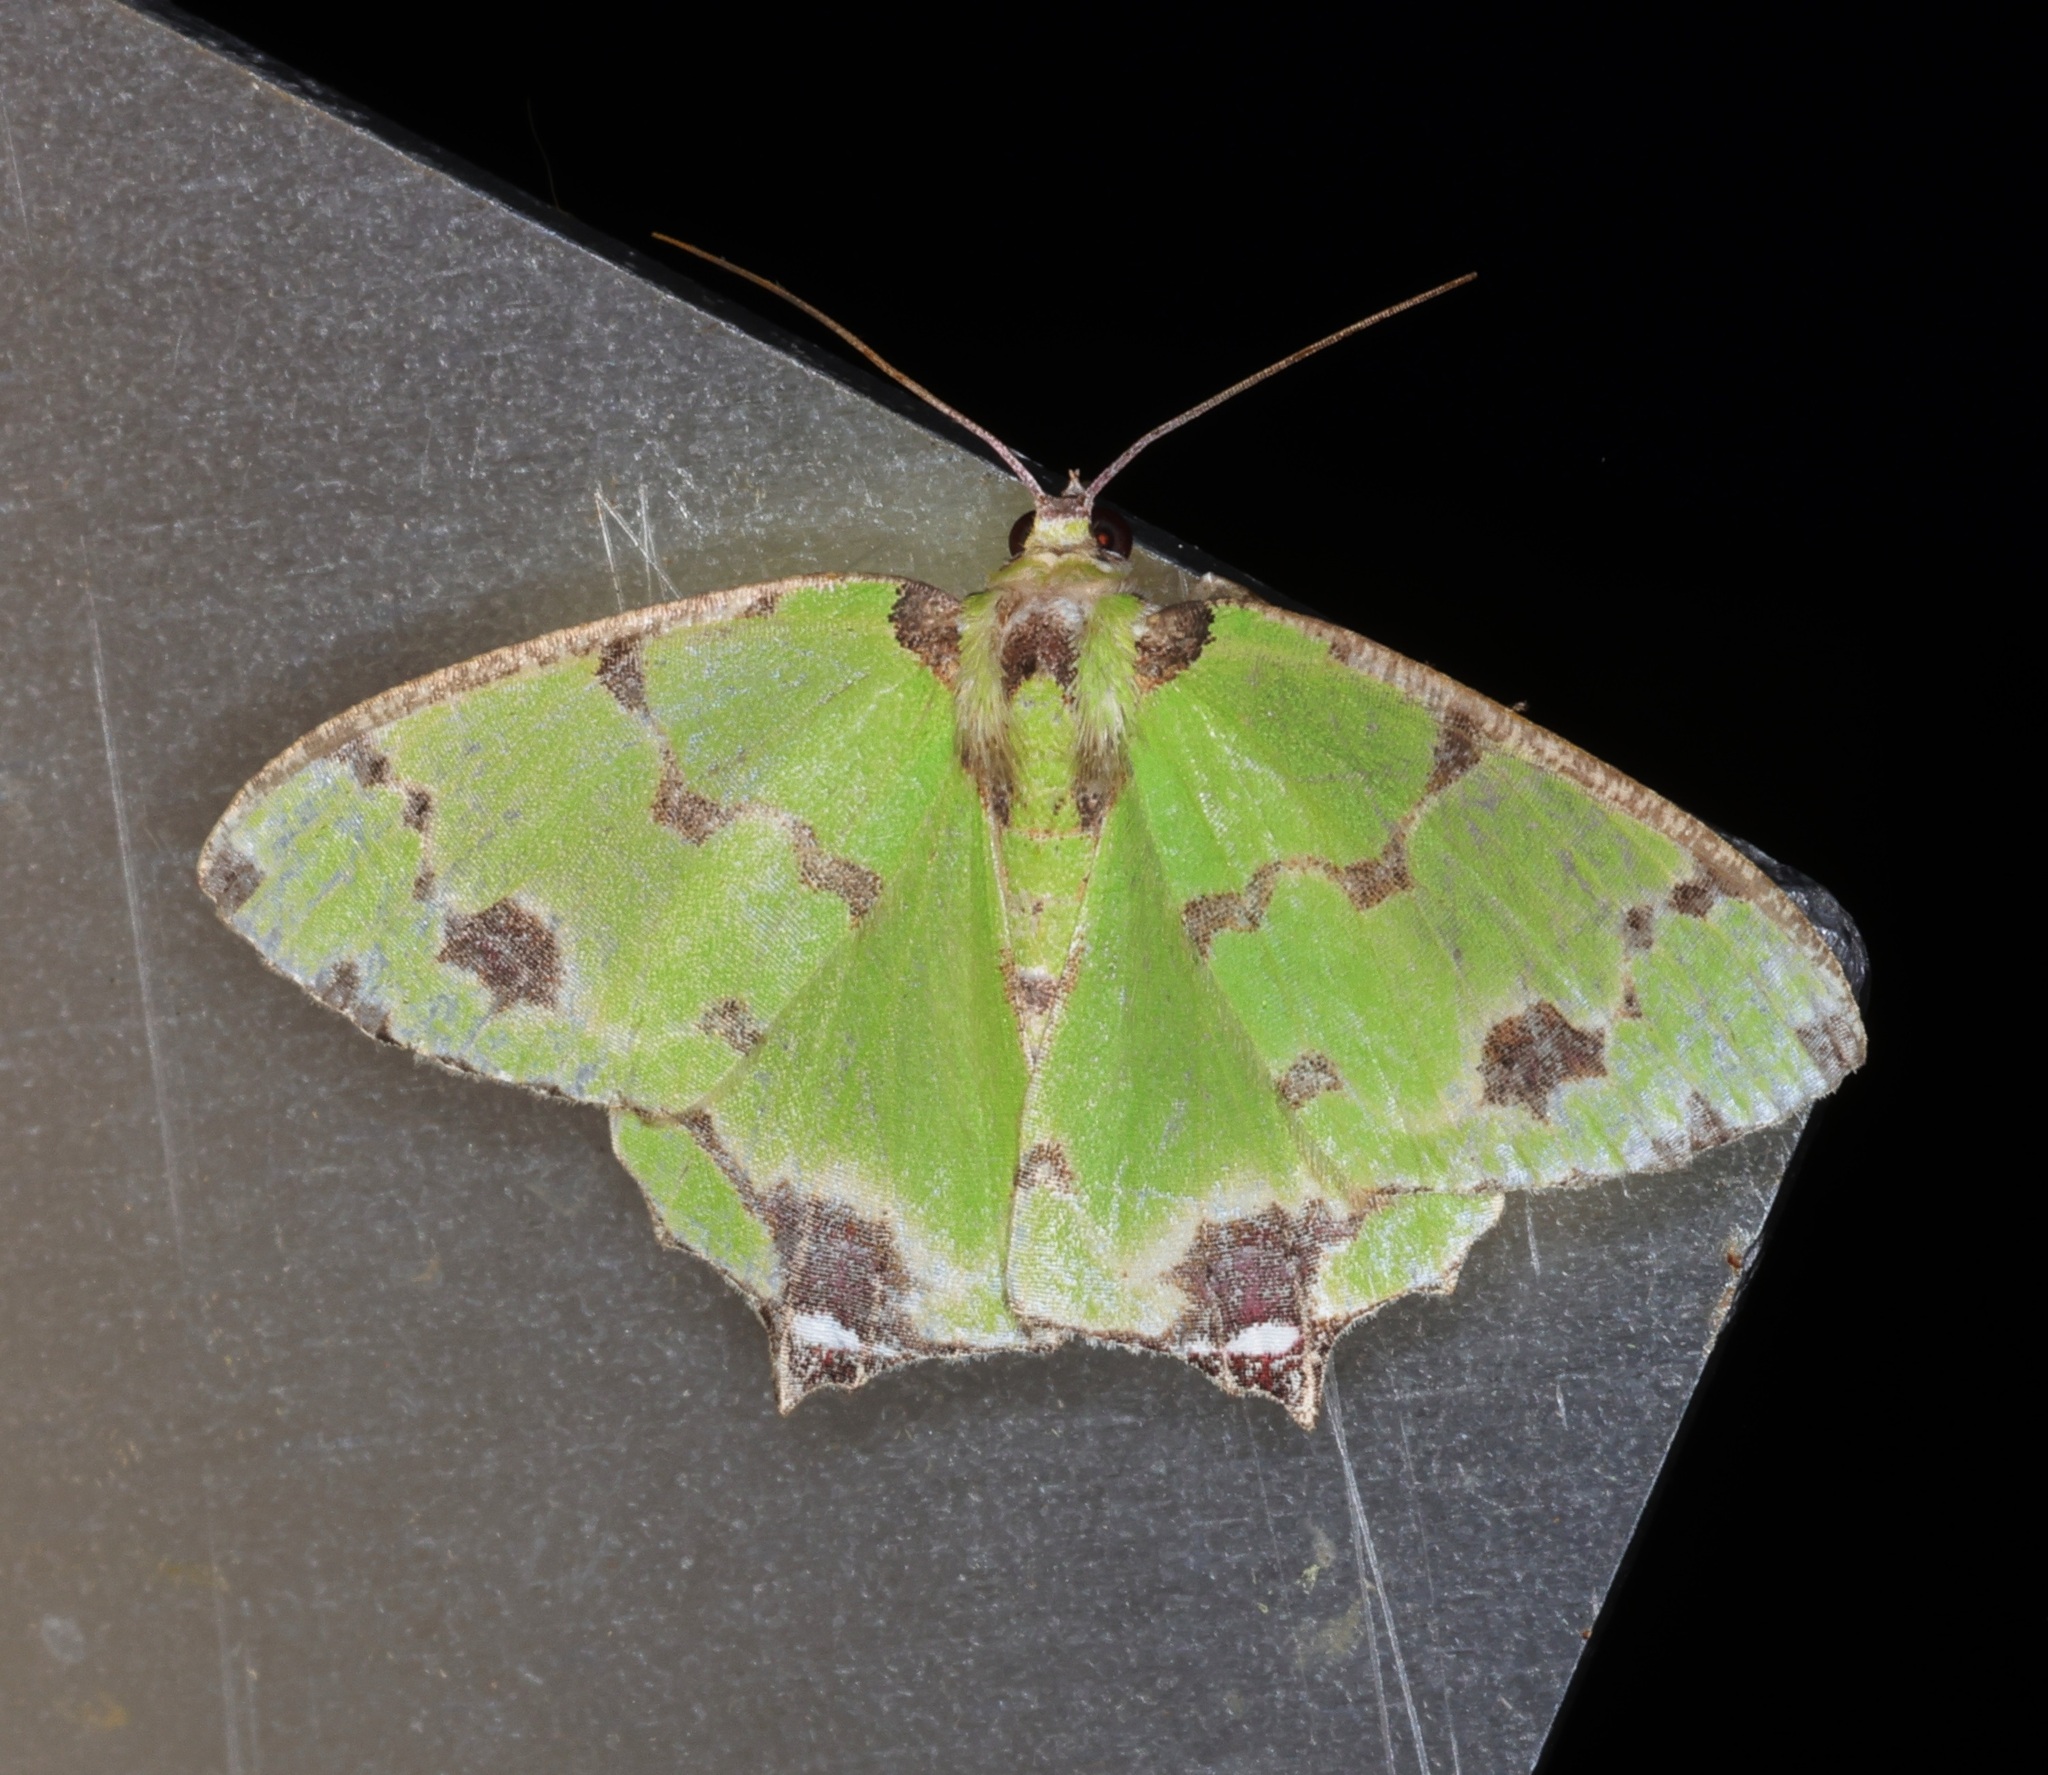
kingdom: Animalia
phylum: Arthropoda
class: Insecta
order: Lepidoptera
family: Geometridae
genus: Agathia
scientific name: Agathia lycaenaria
